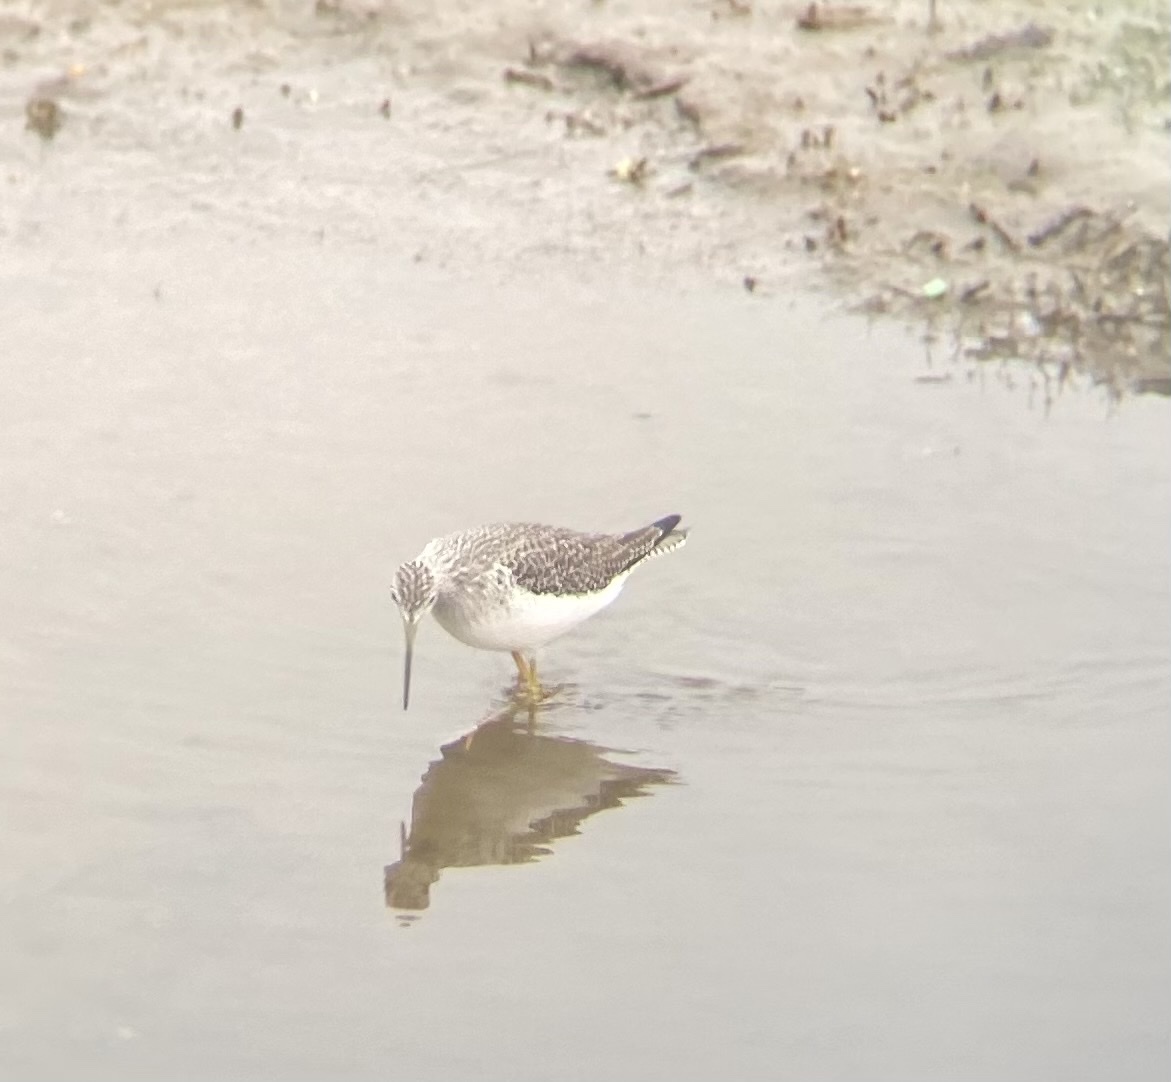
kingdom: Animalia
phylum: Chordata
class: Aves
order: Charadriiformes
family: Scolopacidae
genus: Tringa
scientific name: Tringa melanoleuca
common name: Greater yellowlegs
